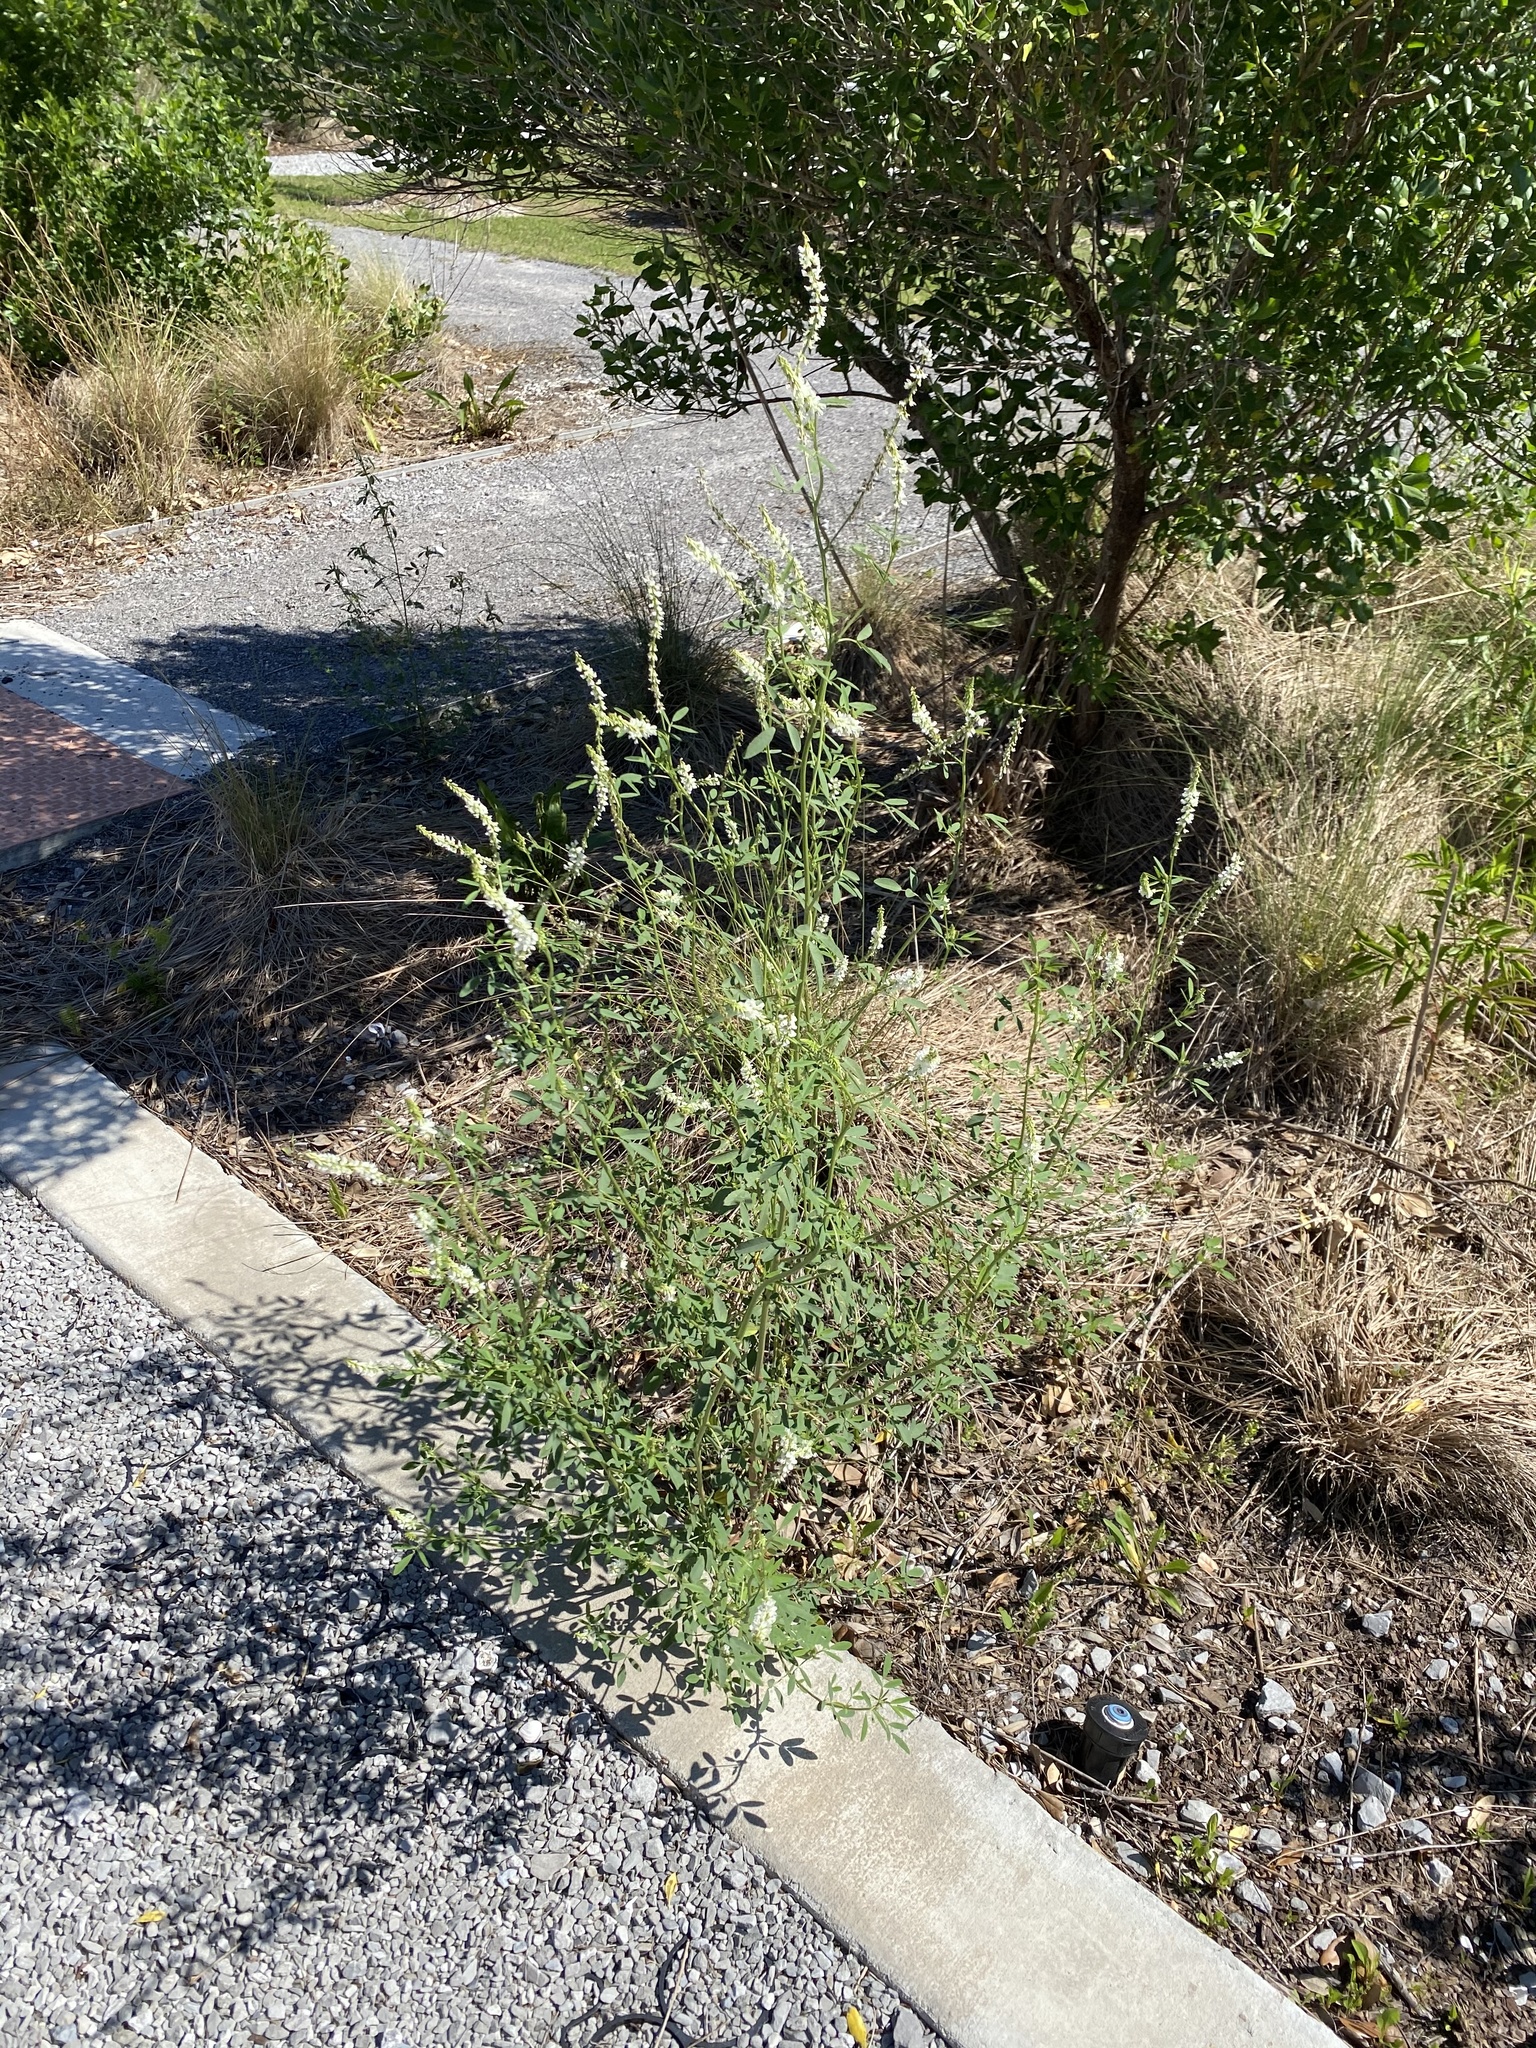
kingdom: Plantae
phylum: Tracheophyta
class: Magnoliopsida
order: Fabales
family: Fabaceae
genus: Melilotus
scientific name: Melilotus albus
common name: White melilot
